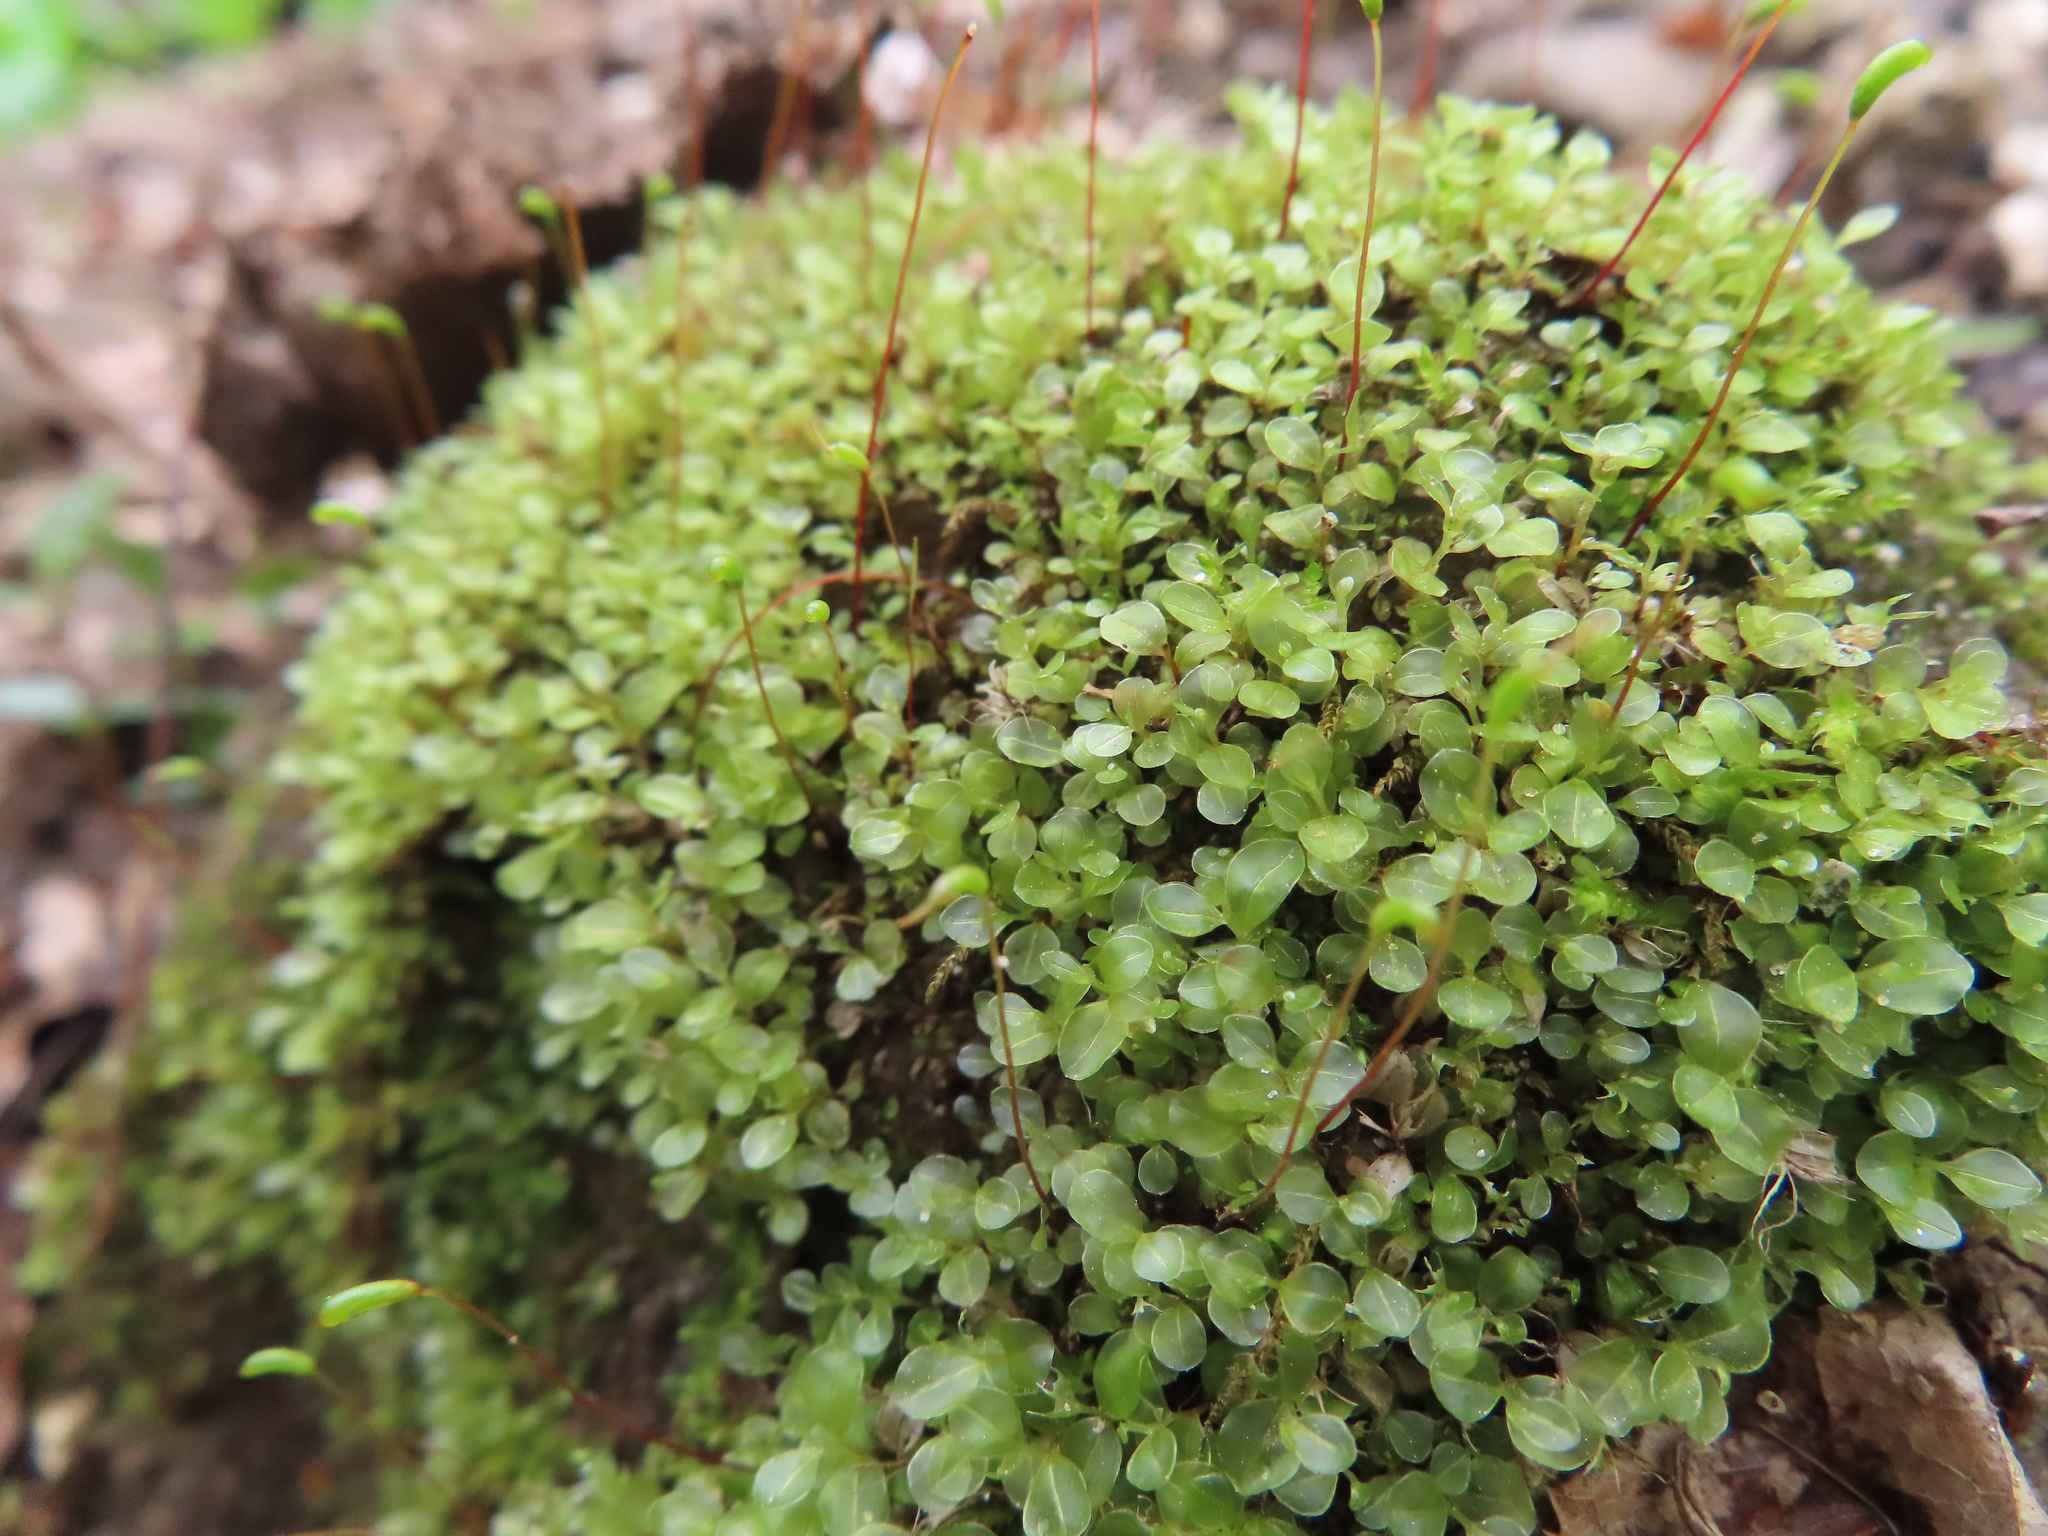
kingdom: Plantae
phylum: Bryophyta
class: Bryopsida
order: Bryales
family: Mniaceae
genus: Rhizomnium
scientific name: Rhizomnium punctatum
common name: Dotted leafy moss
